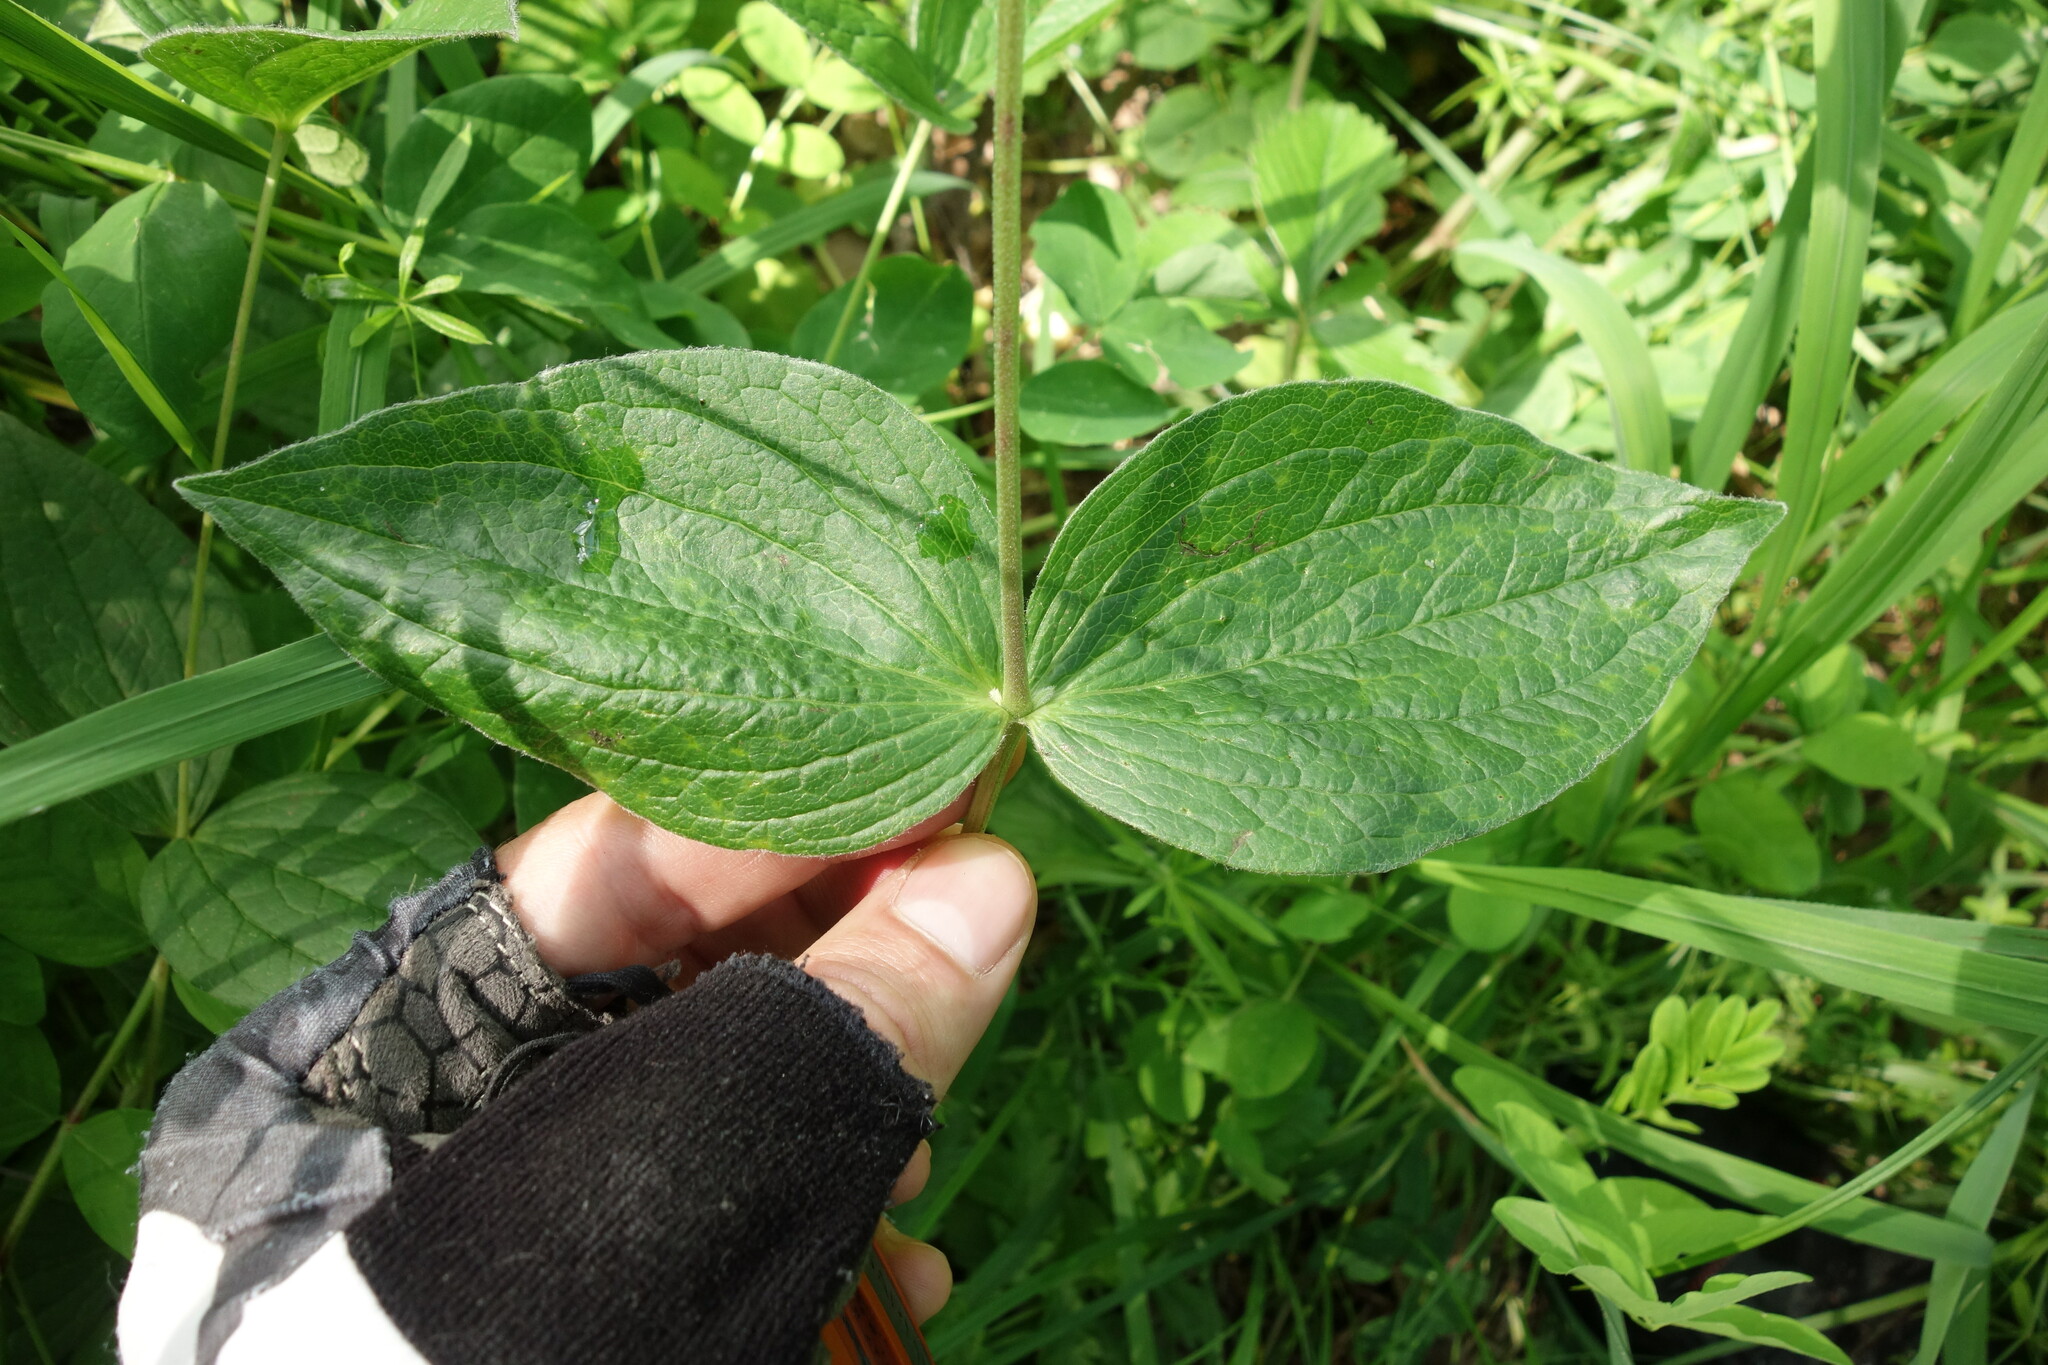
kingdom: Plantae
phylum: Tracheophyta
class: Magnoliopsida
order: Ranunculales
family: Ranunculaceae
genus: Clematis
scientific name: Clematis integrifolia
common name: Solitary clematis
